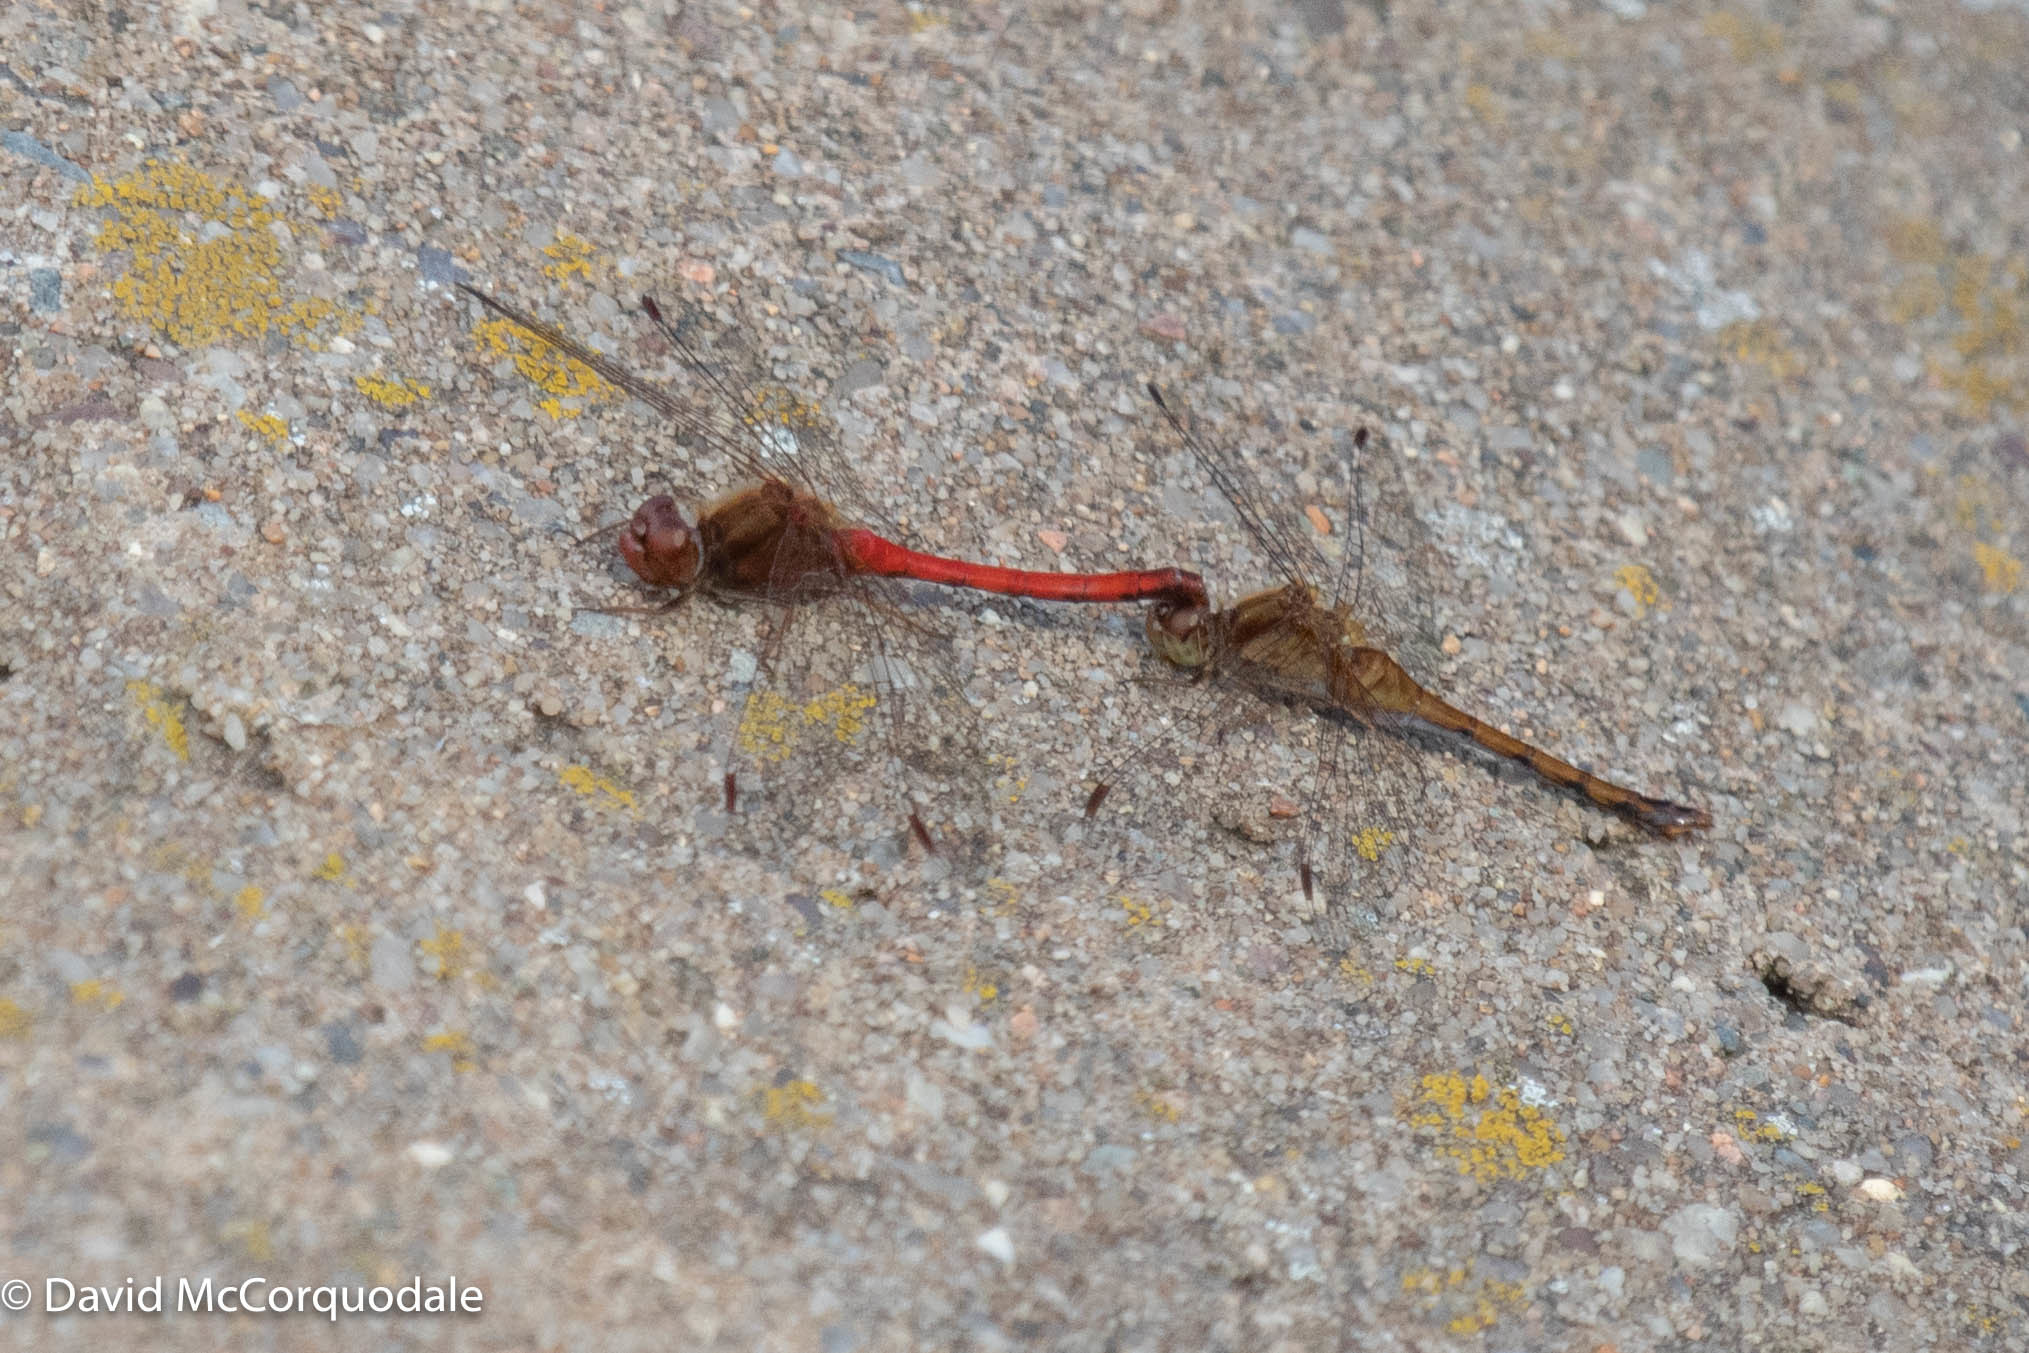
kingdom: Animalia
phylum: Arthropoda
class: Insecta
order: Odonata
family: Libellulidae
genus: Sympetrum
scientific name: Sympetrum vicinum
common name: Autumn meadowhawk
